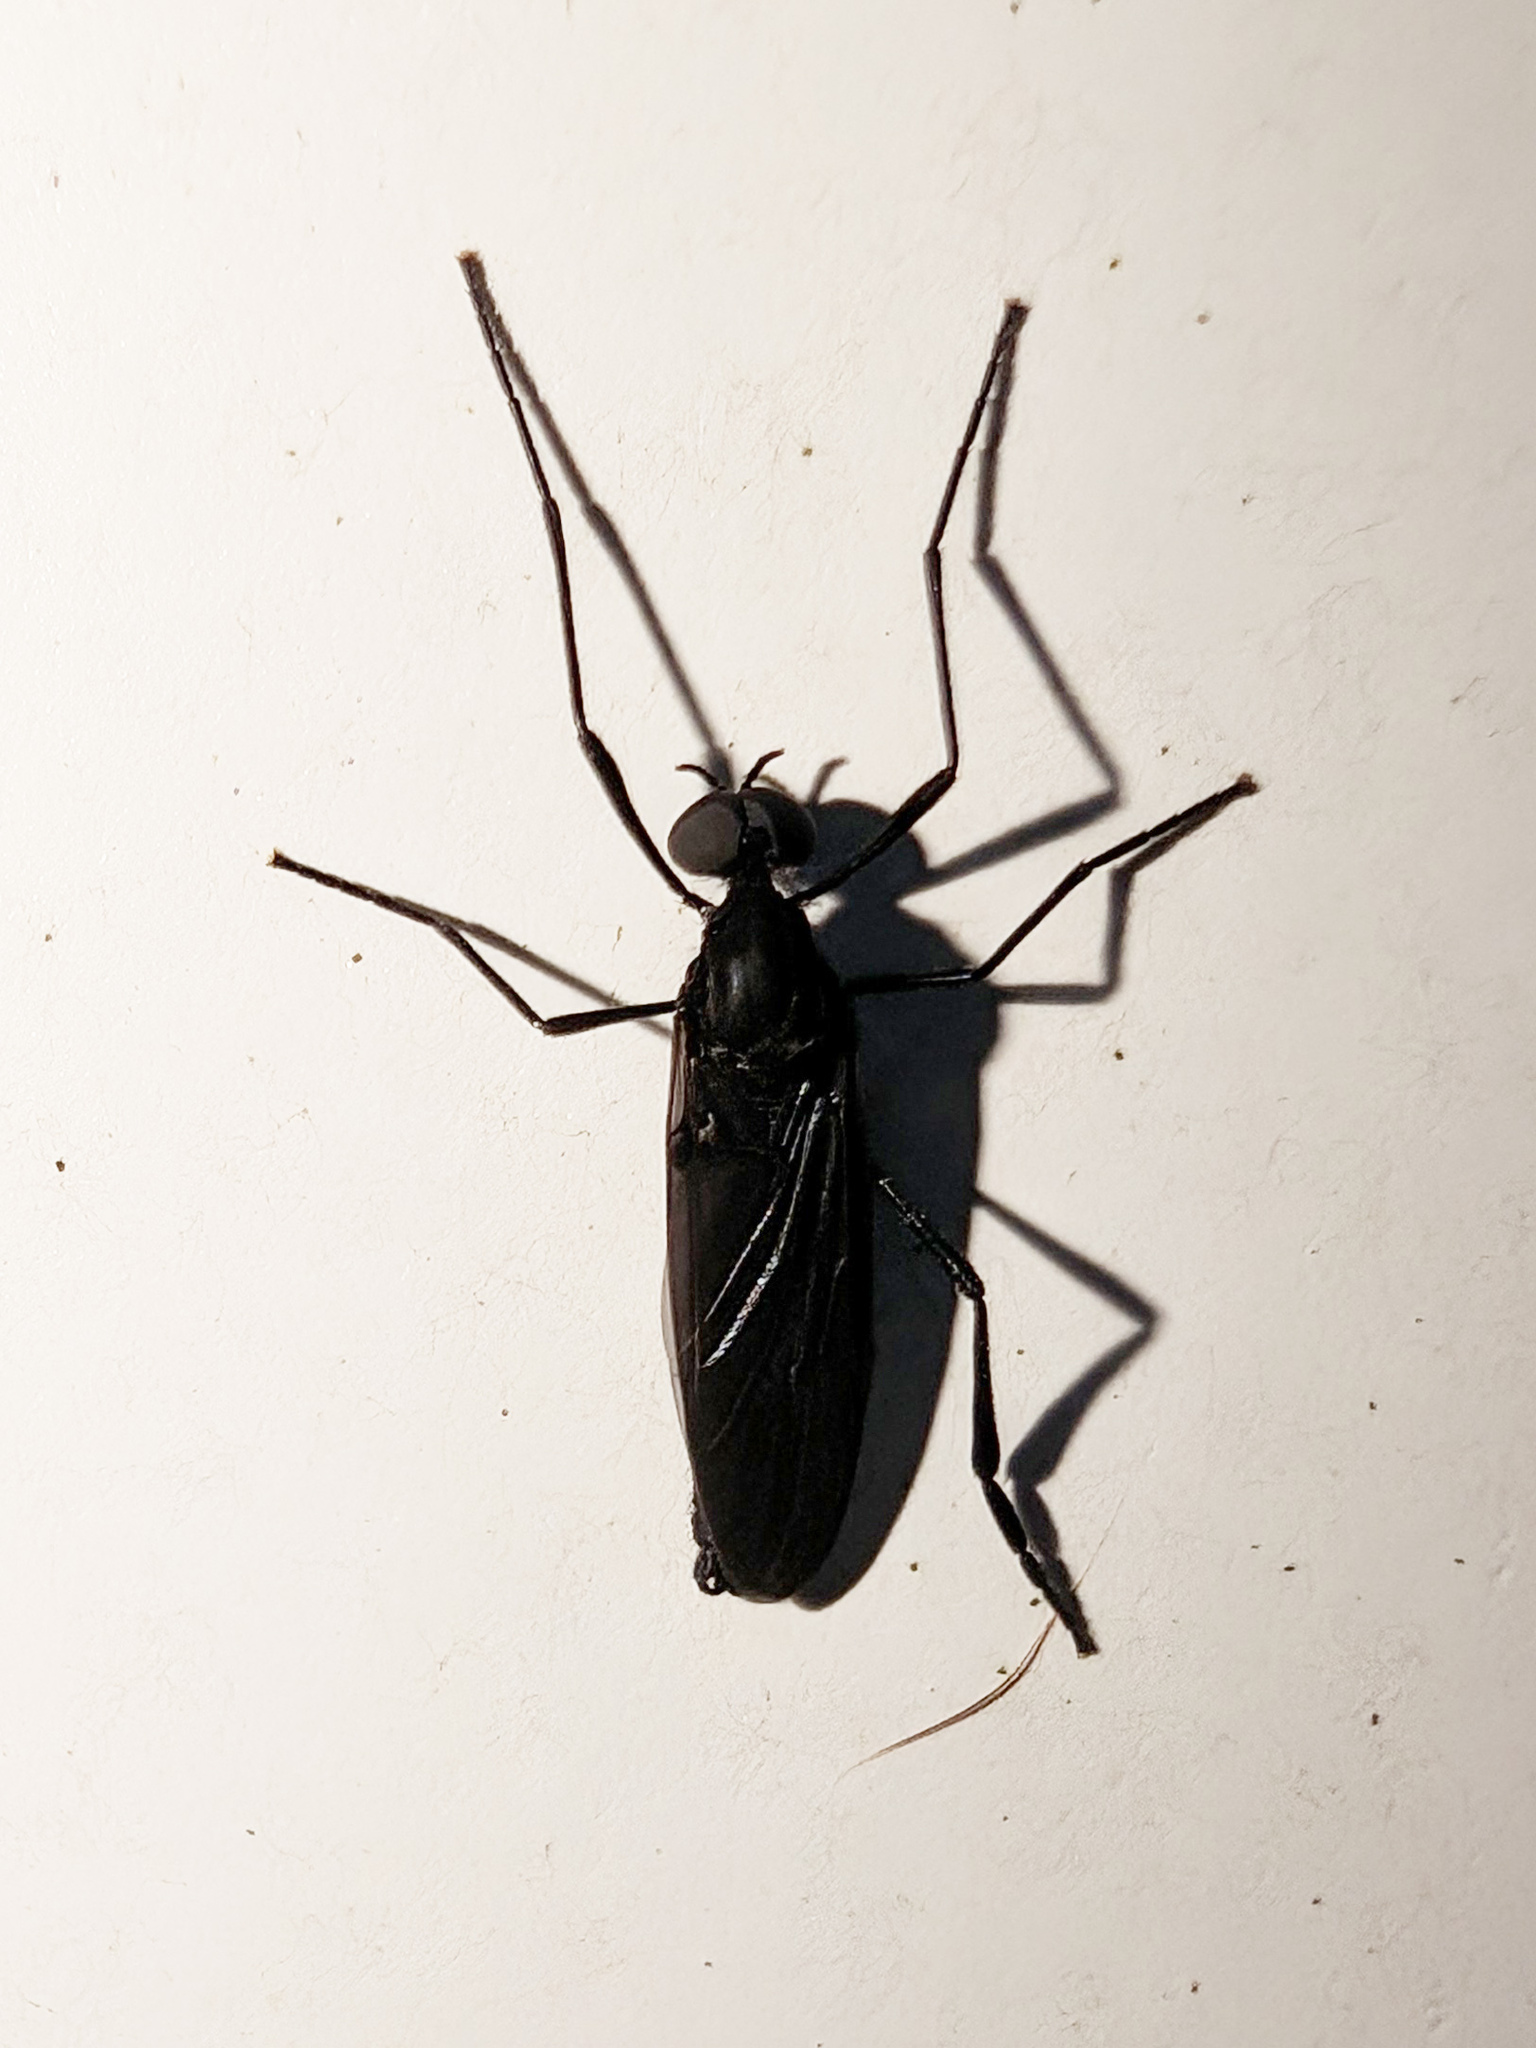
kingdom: Animalia
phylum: Arthropoda
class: Insecta
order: Diptera
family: Bibionidae
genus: Penthetria
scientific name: Penthetria heteroptera
